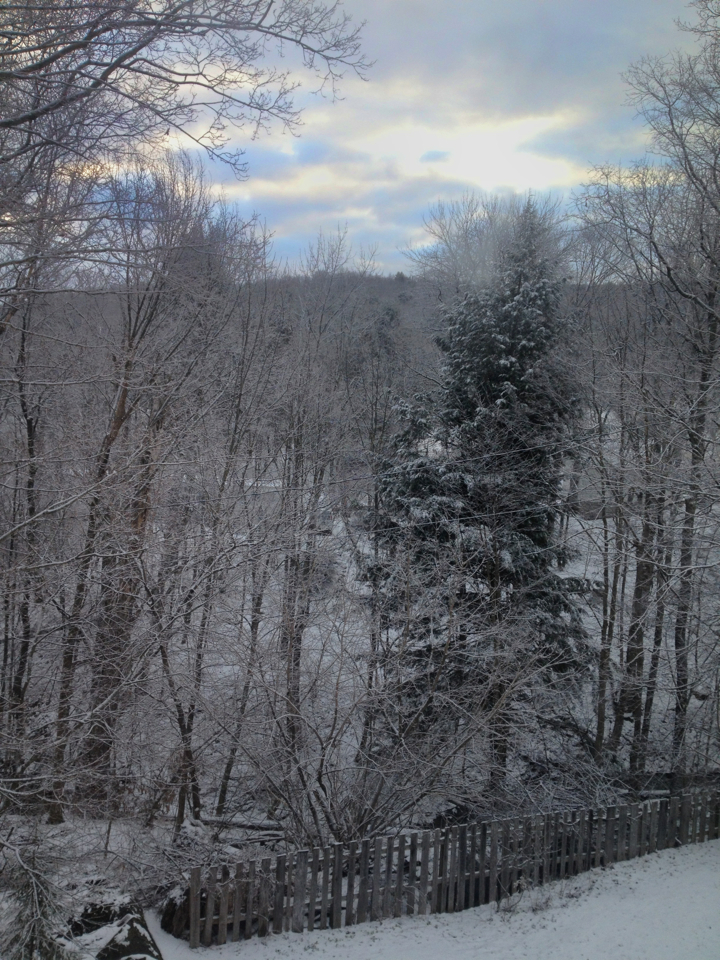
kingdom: Plantae
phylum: Tracheophyta
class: Pinopsida
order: Pinales
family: Pinaceae
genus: Tsuga
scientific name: Tsuga canadensis
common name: Eastern hemlock
